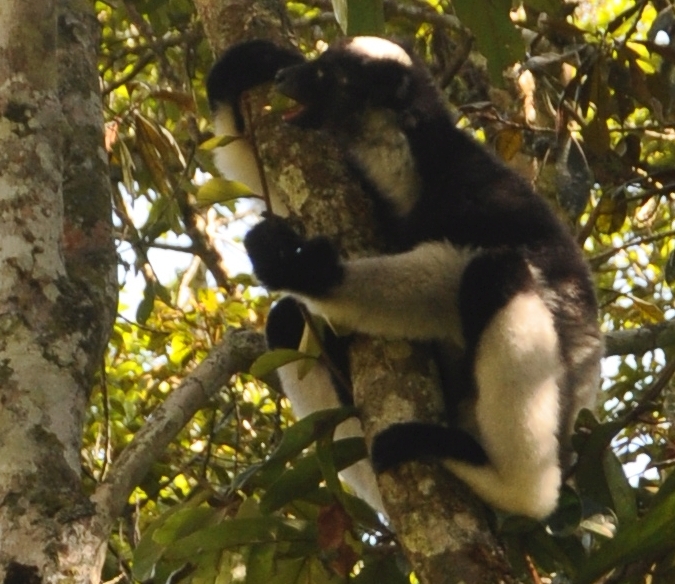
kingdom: Animalia
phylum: Chordata
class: Mammalia
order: Primates
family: Indriidae
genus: Indri
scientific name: Indri indri
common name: Indri
